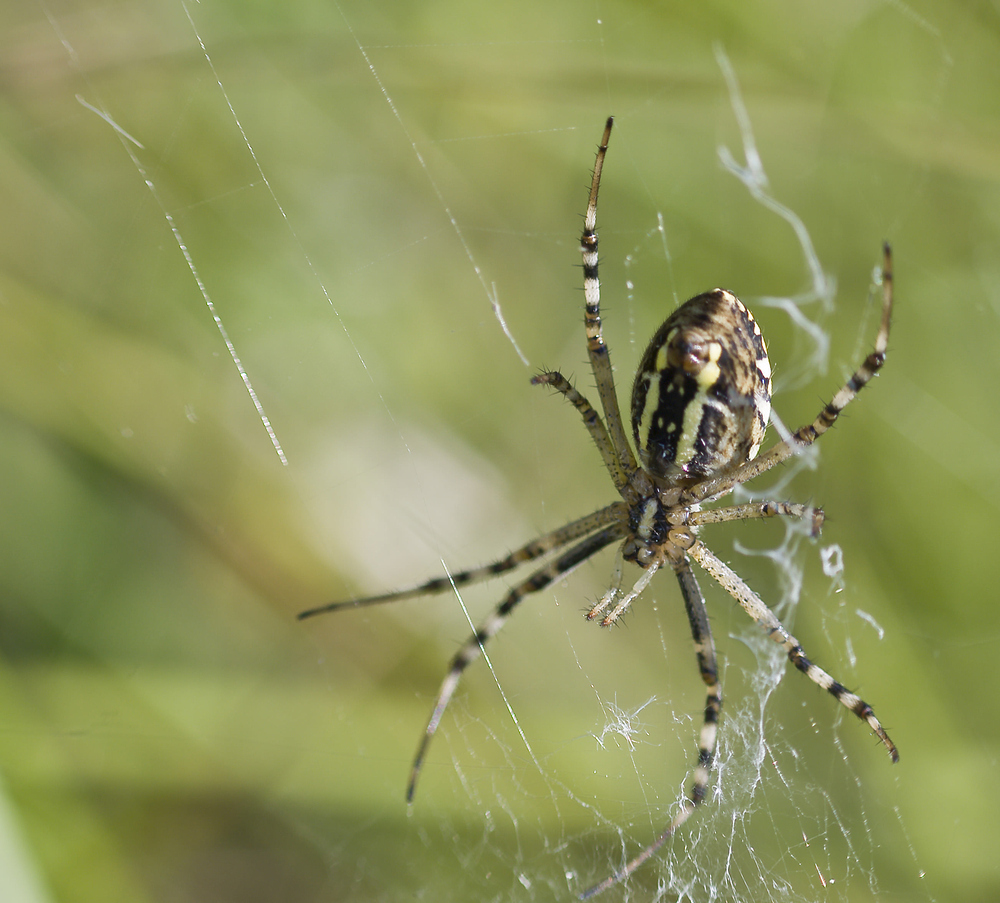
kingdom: Animalia
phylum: Arthropoda
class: Arachnida
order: Araneae
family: Araneidae
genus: Argiope
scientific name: Argiope bruennichi
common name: Wasp spider
